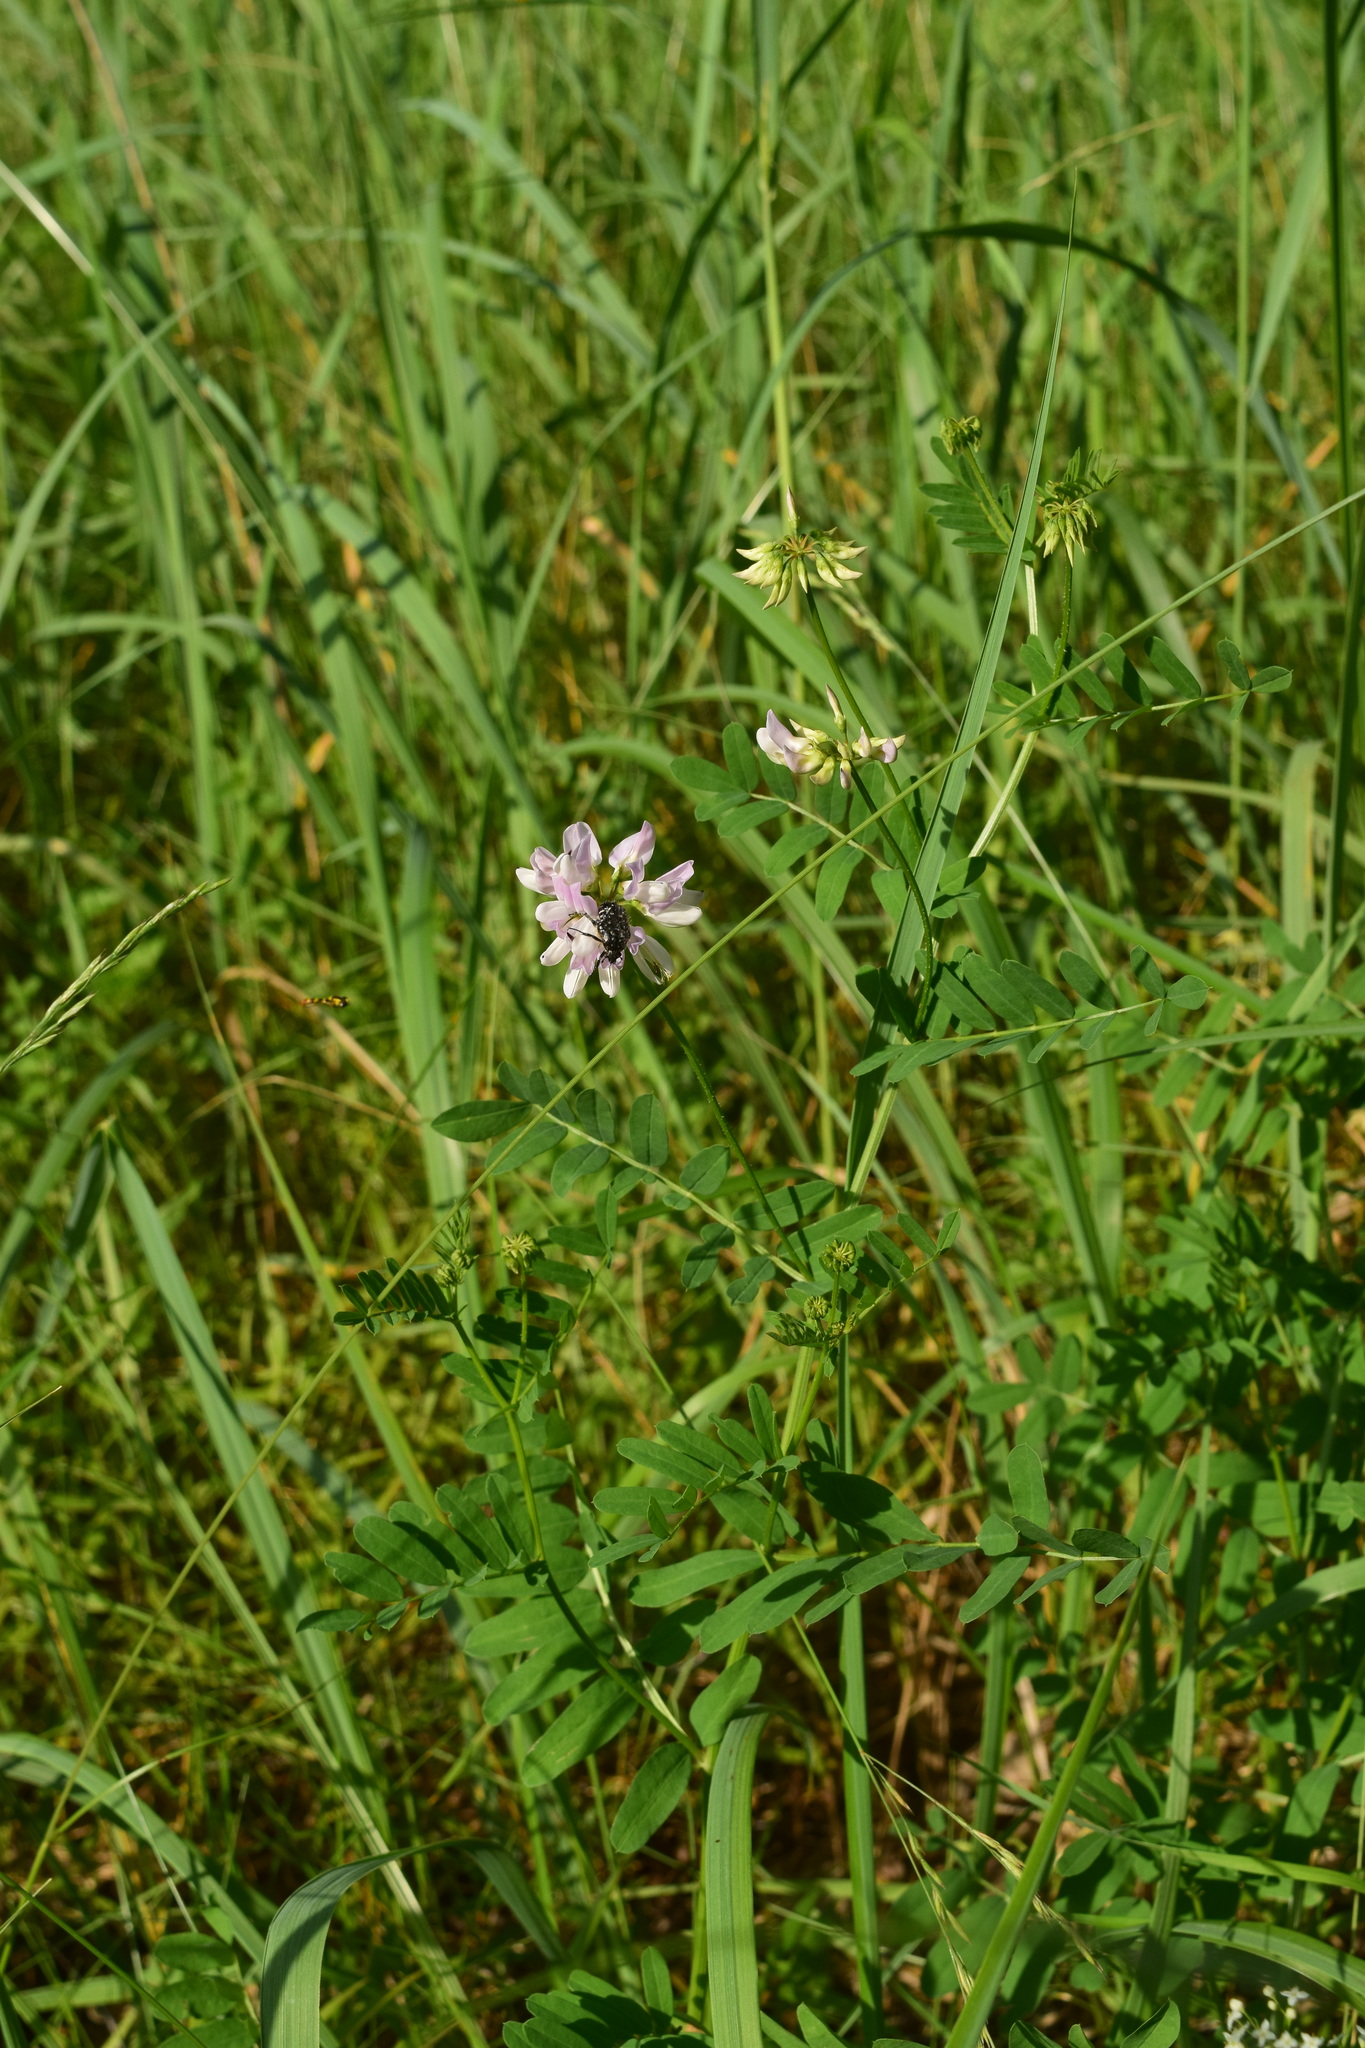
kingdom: Plantae
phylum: Tracheophyta
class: Magnoliopsida
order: Fabales
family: Fabaceae
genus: Coronilla
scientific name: Coronilla varia
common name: Crownvetch
